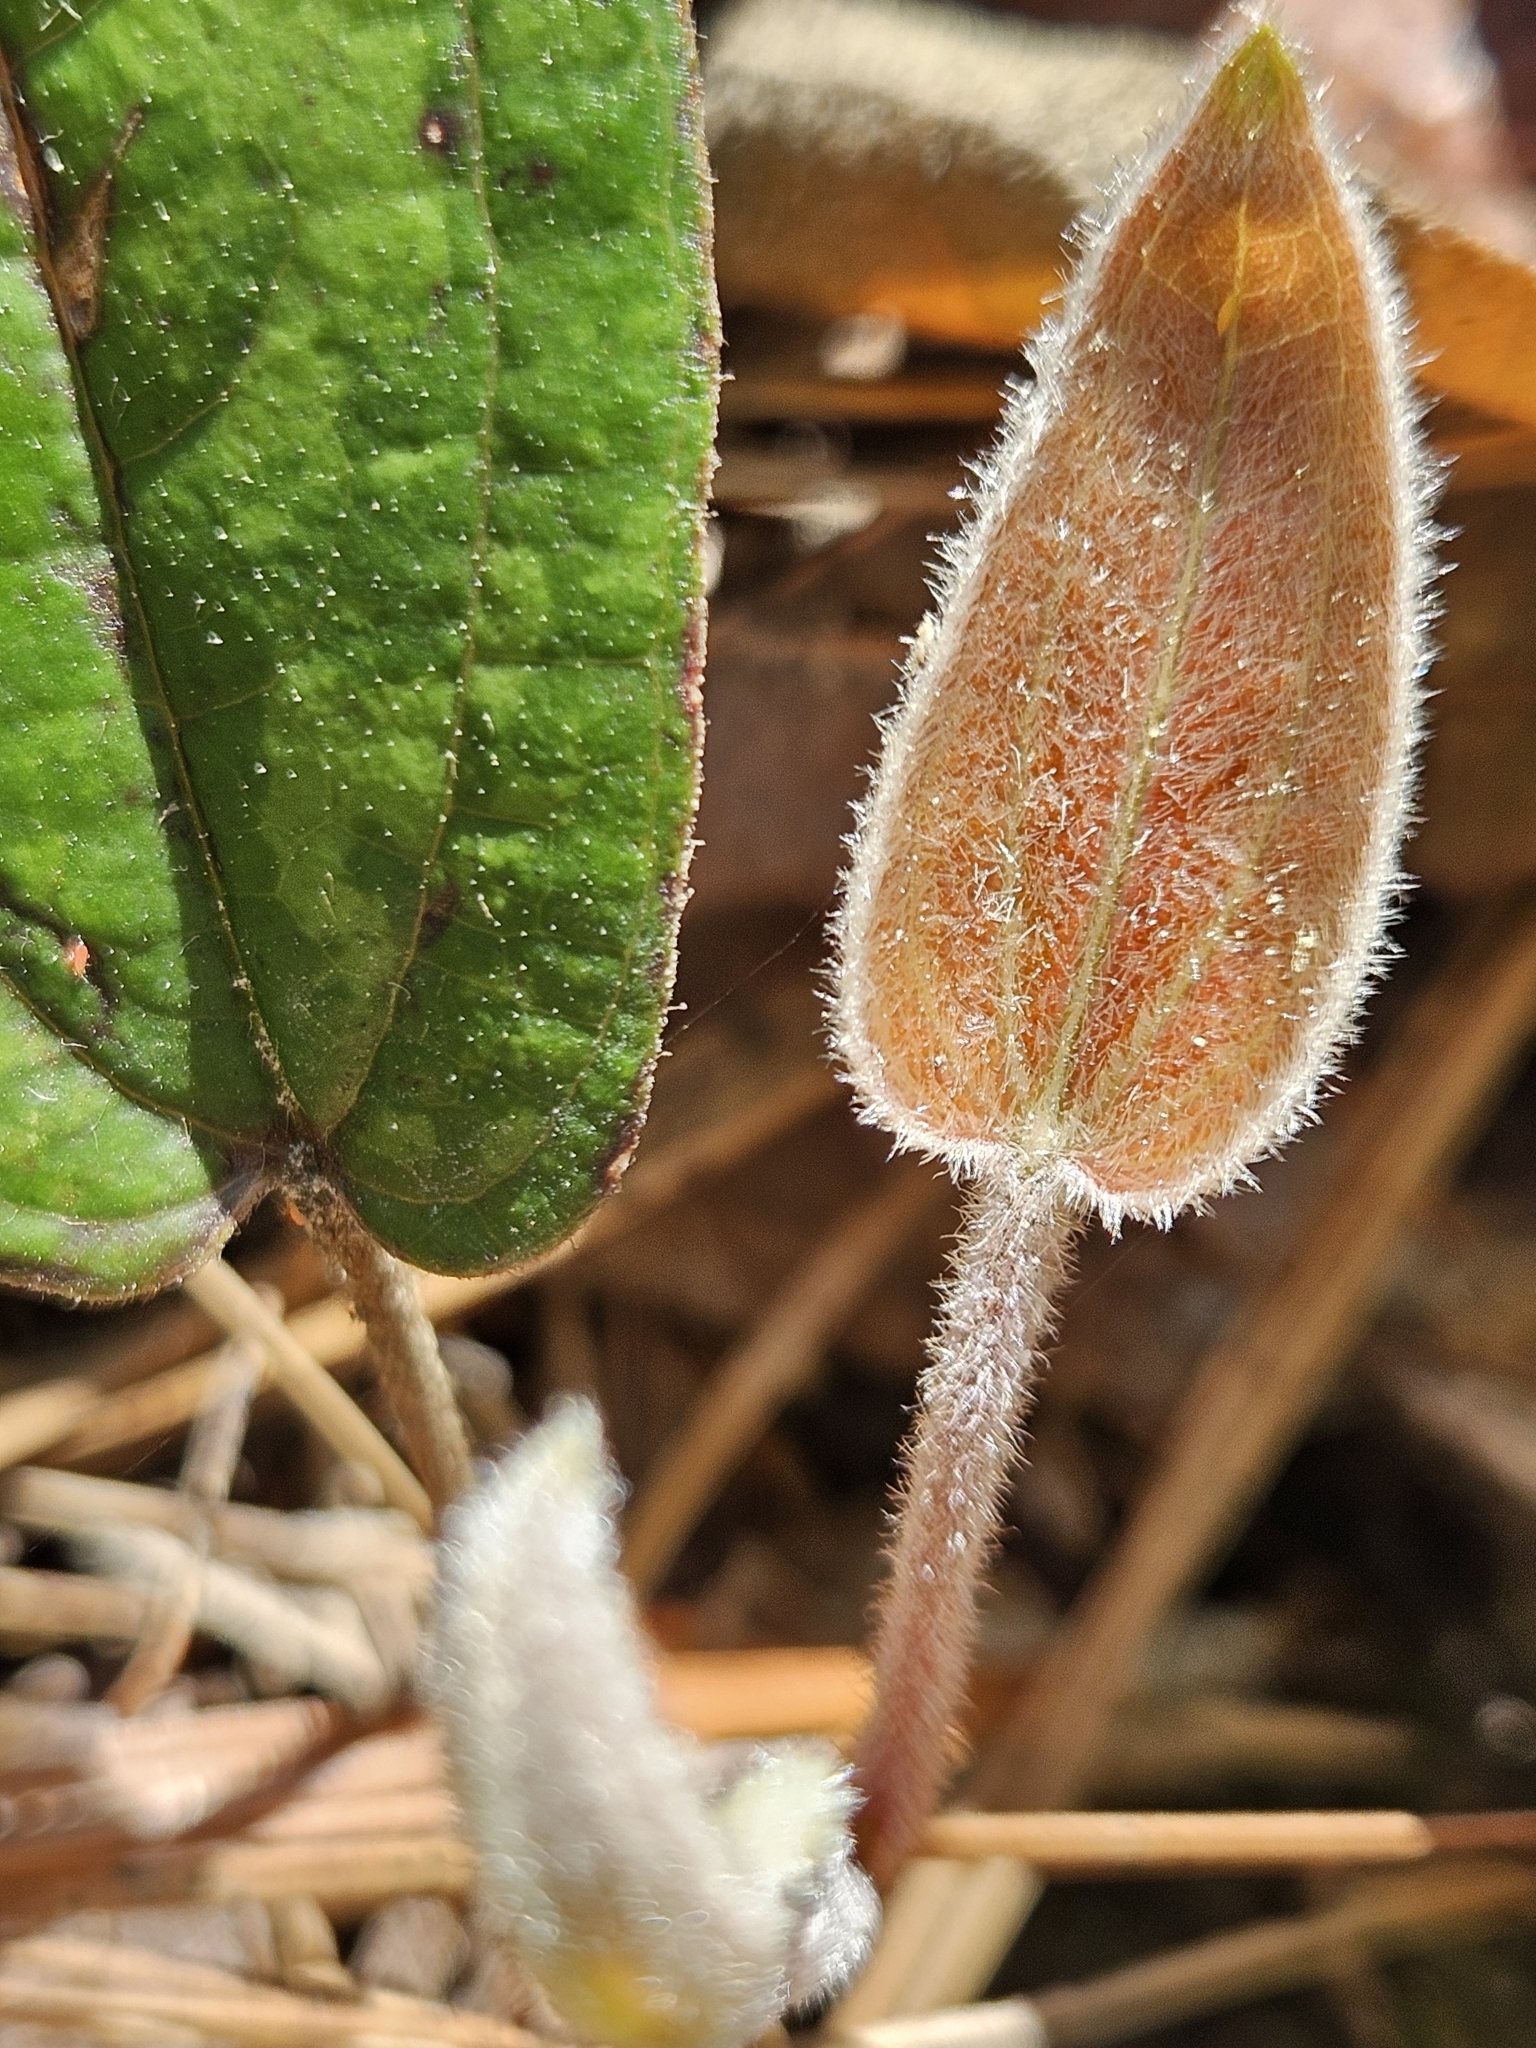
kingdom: Plantae
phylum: Tracheophyta
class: Liliopsida
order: Liliales
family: Smilacaceae
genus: Smilax
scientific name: Smilax pumila
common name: Sarsaparilla-vine
